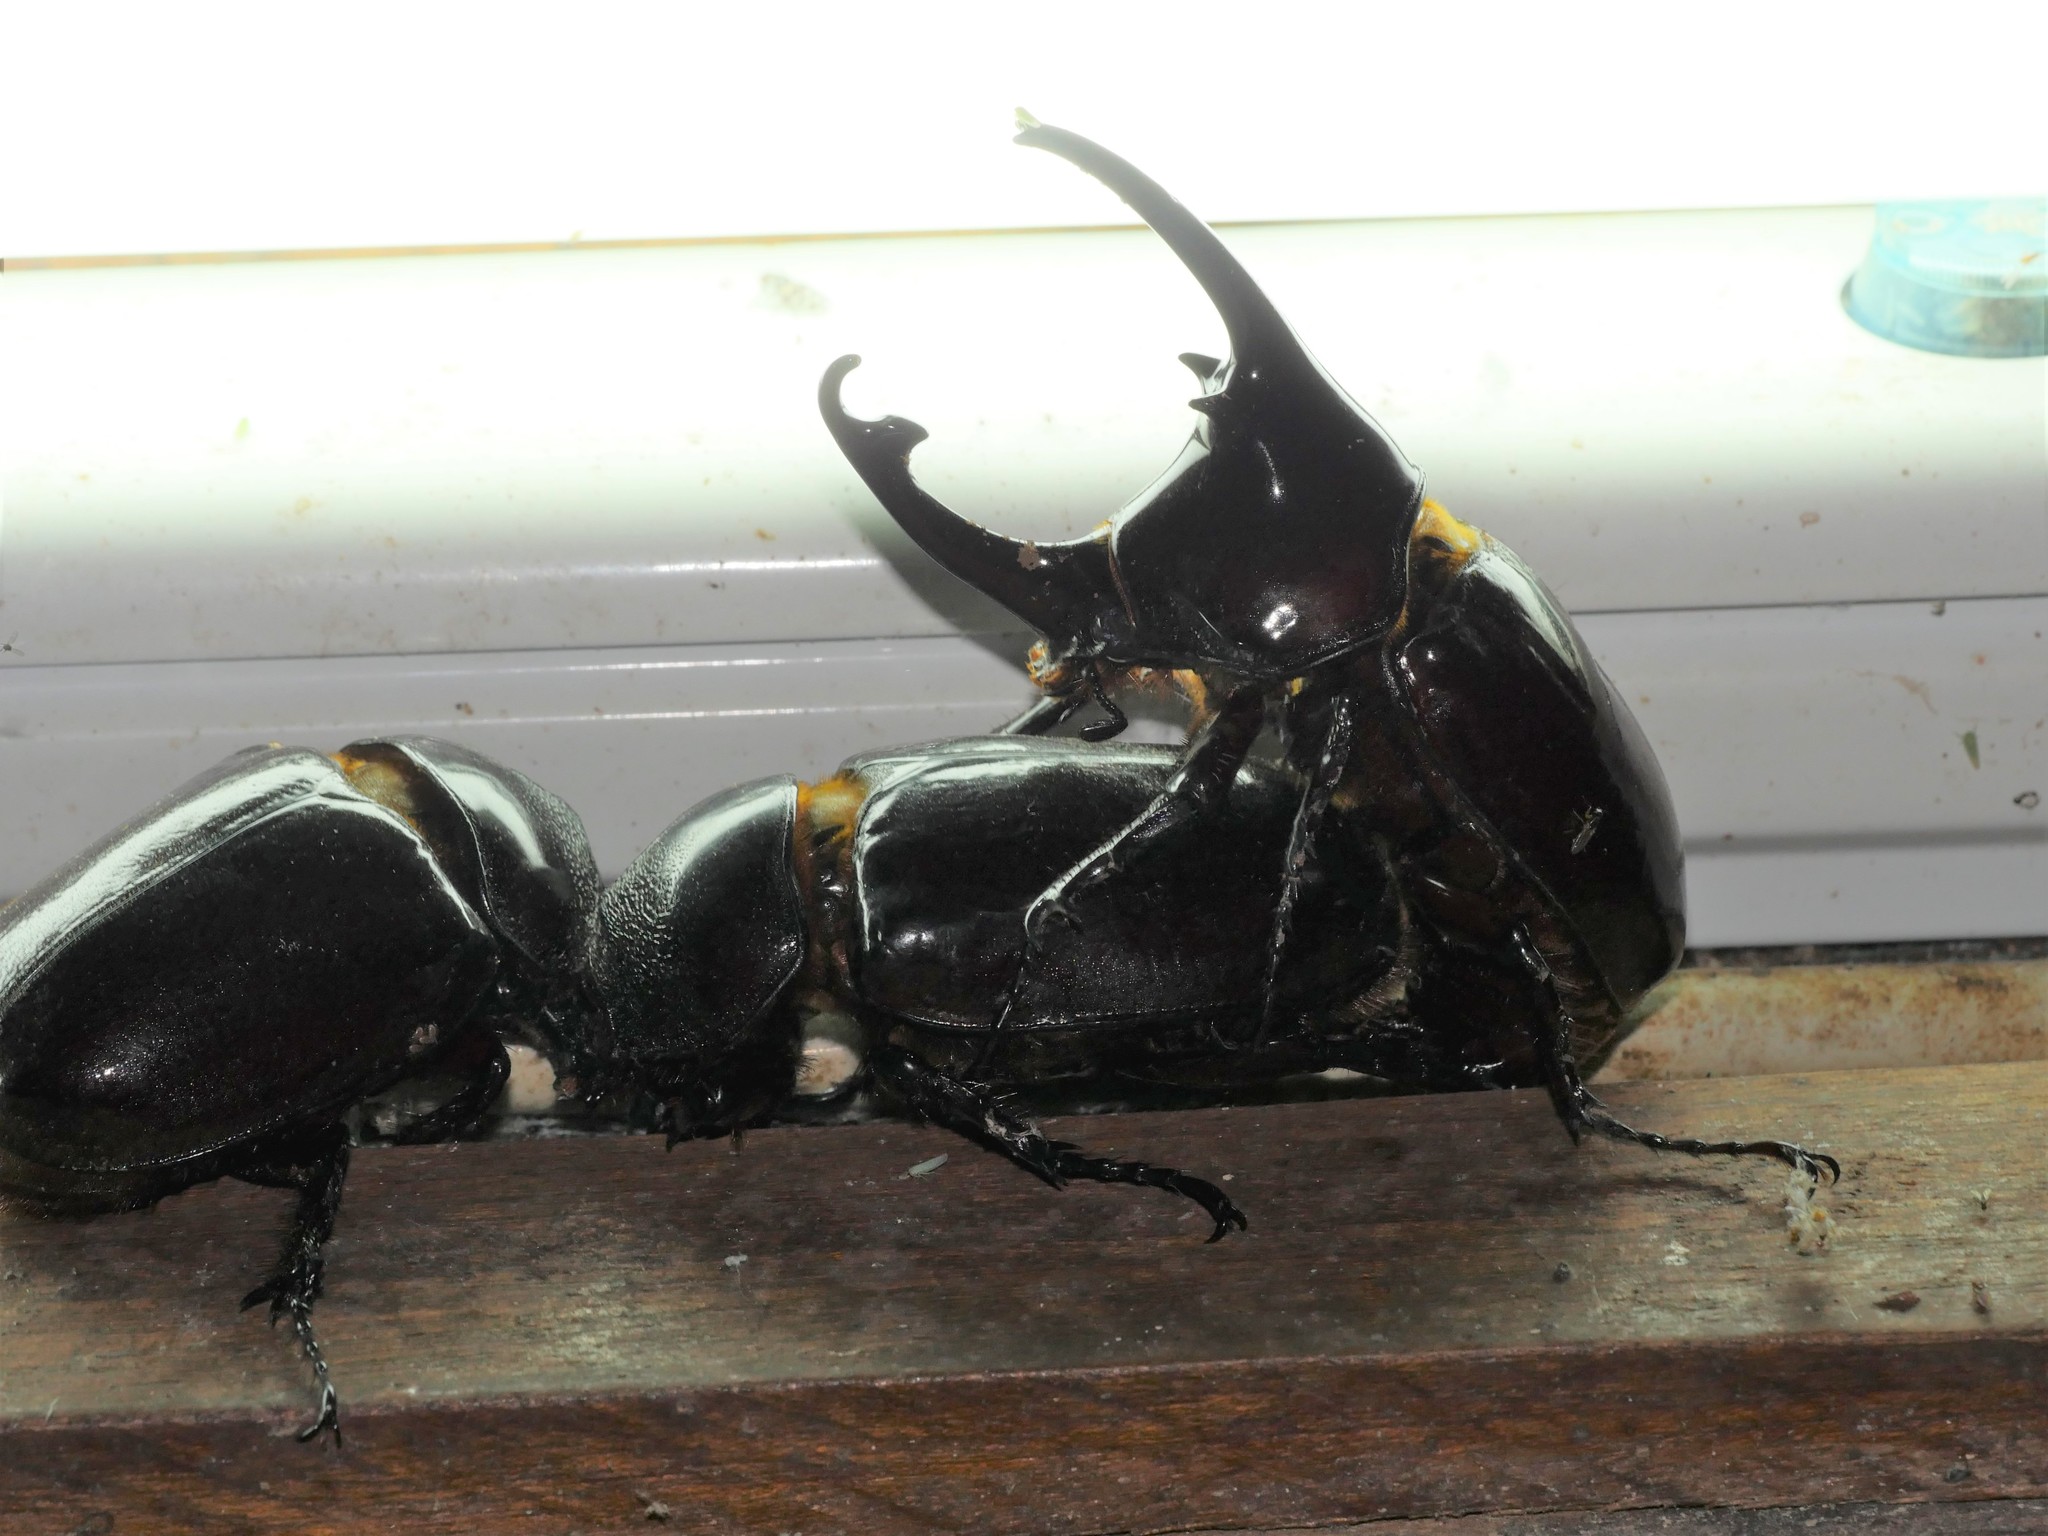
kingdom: Animalia
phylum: Arthropoda
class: Insecta
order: Coleoptera
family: Scarabaeidae
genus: Augosoma
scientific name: Augosoma centaurus
